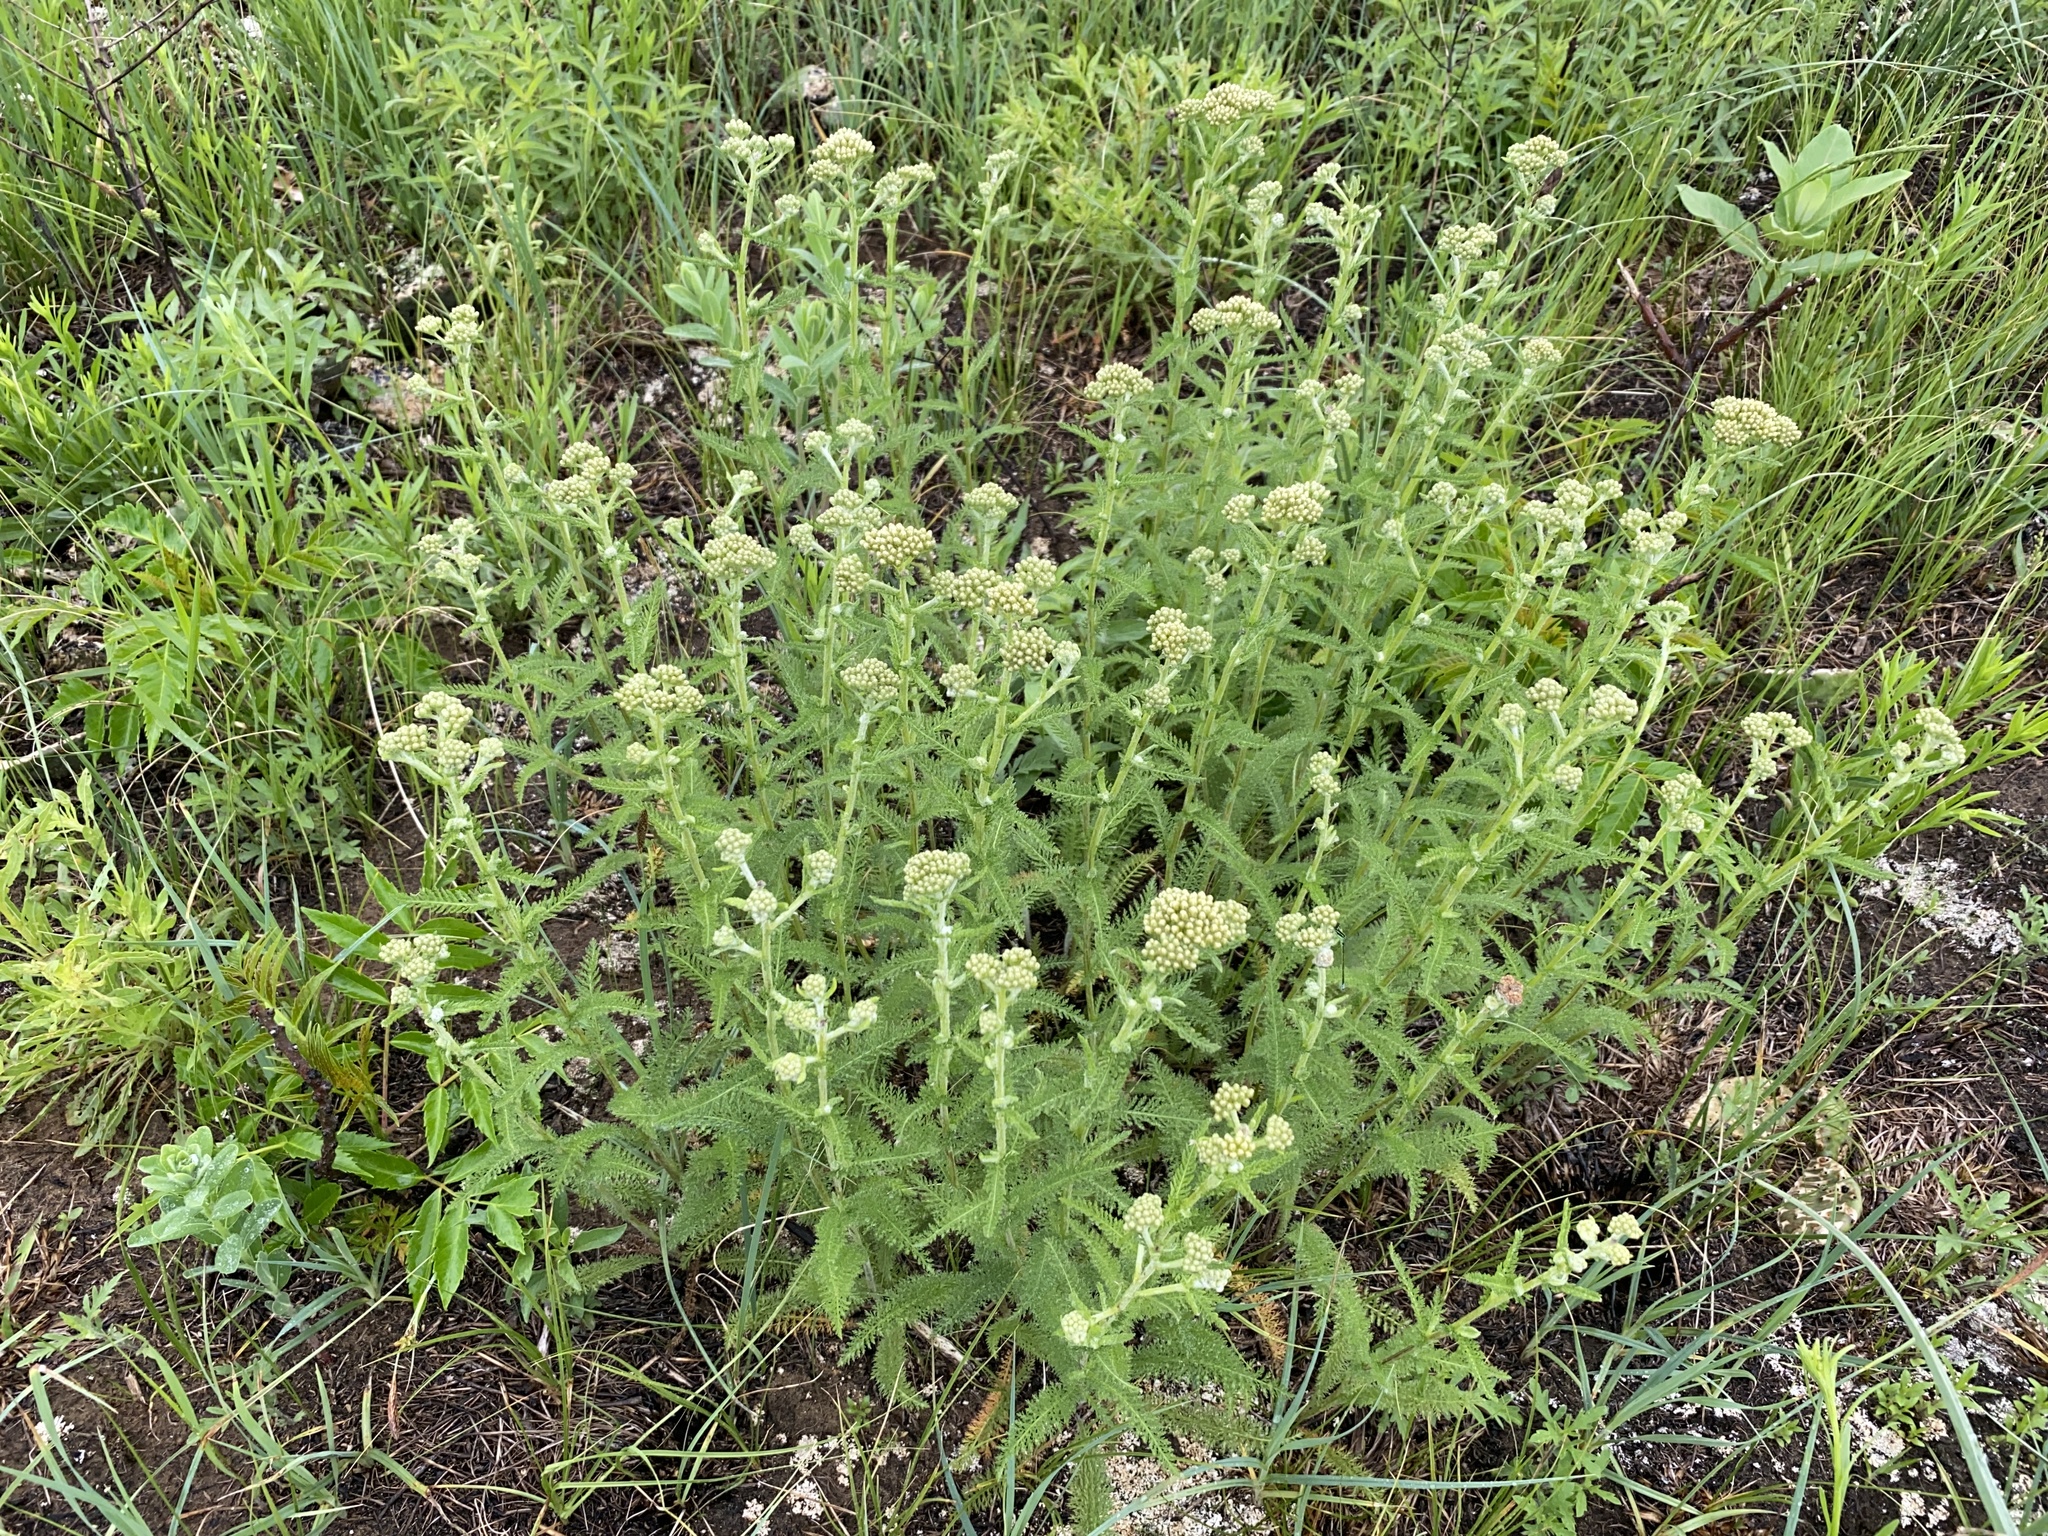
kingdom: Plantae
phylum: Tracheophyta
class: Magnoliopsida
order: Asterales
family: Asteraceae
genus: Achillea
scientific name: Achillea millefolium
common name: Yarrow
